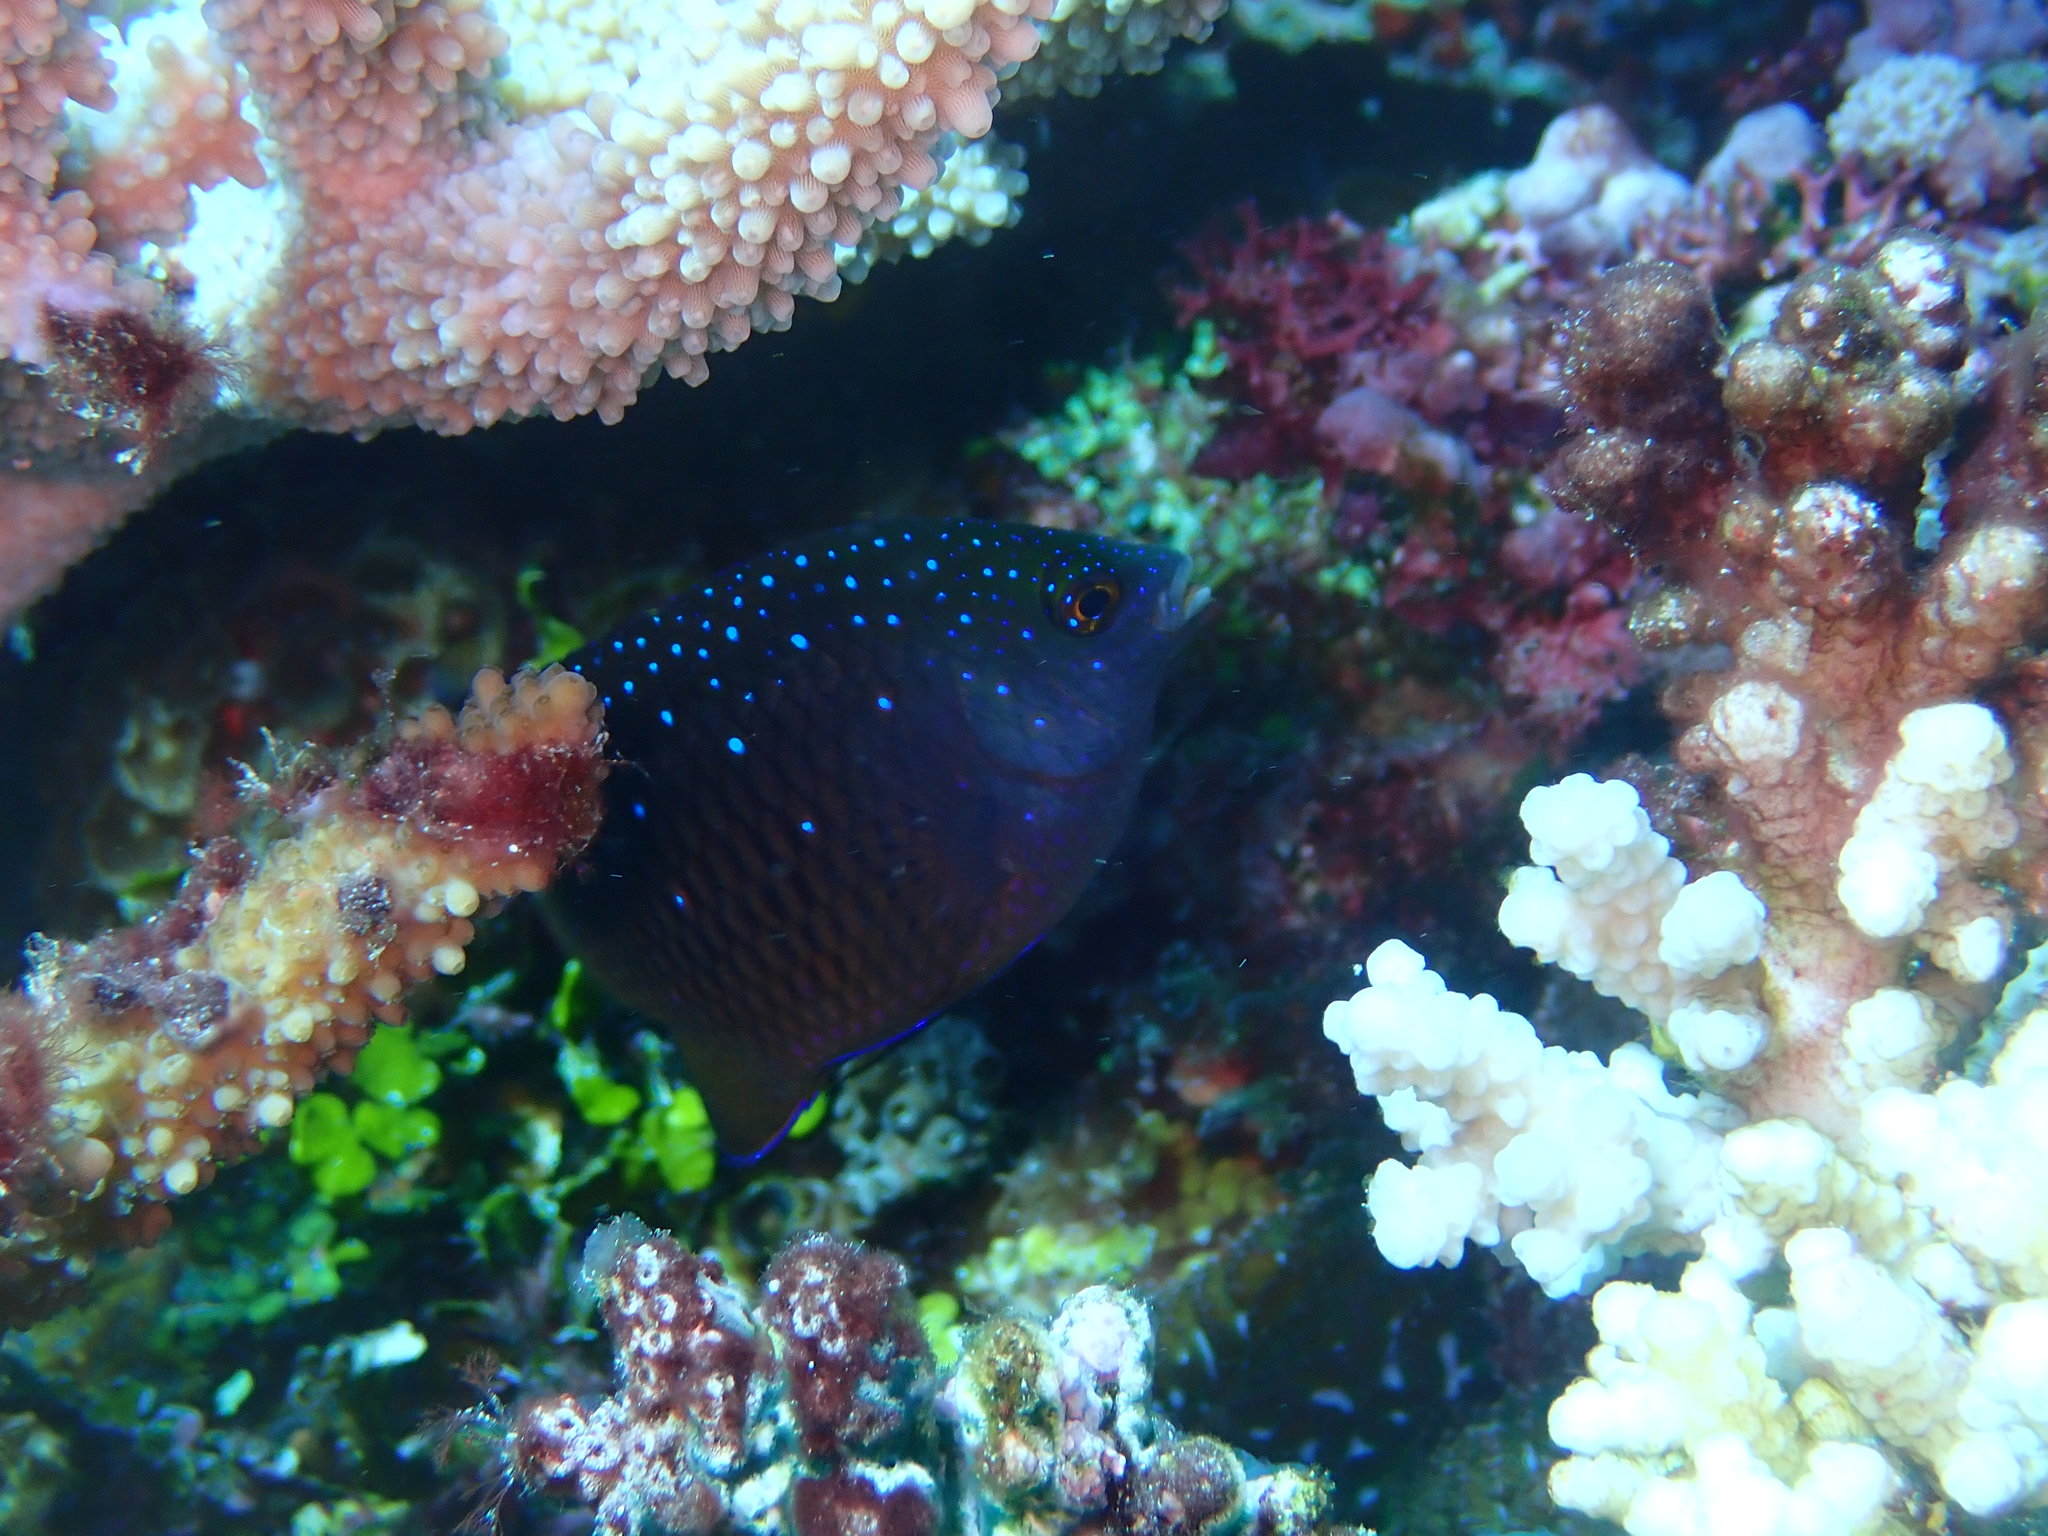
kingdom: Animalia
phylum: Chordata
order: Perciformes
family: Pomacentridae
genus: Plectroglyphidodon
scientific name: Plectroglyphidodon lacrymatus
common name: Jewel damsel
